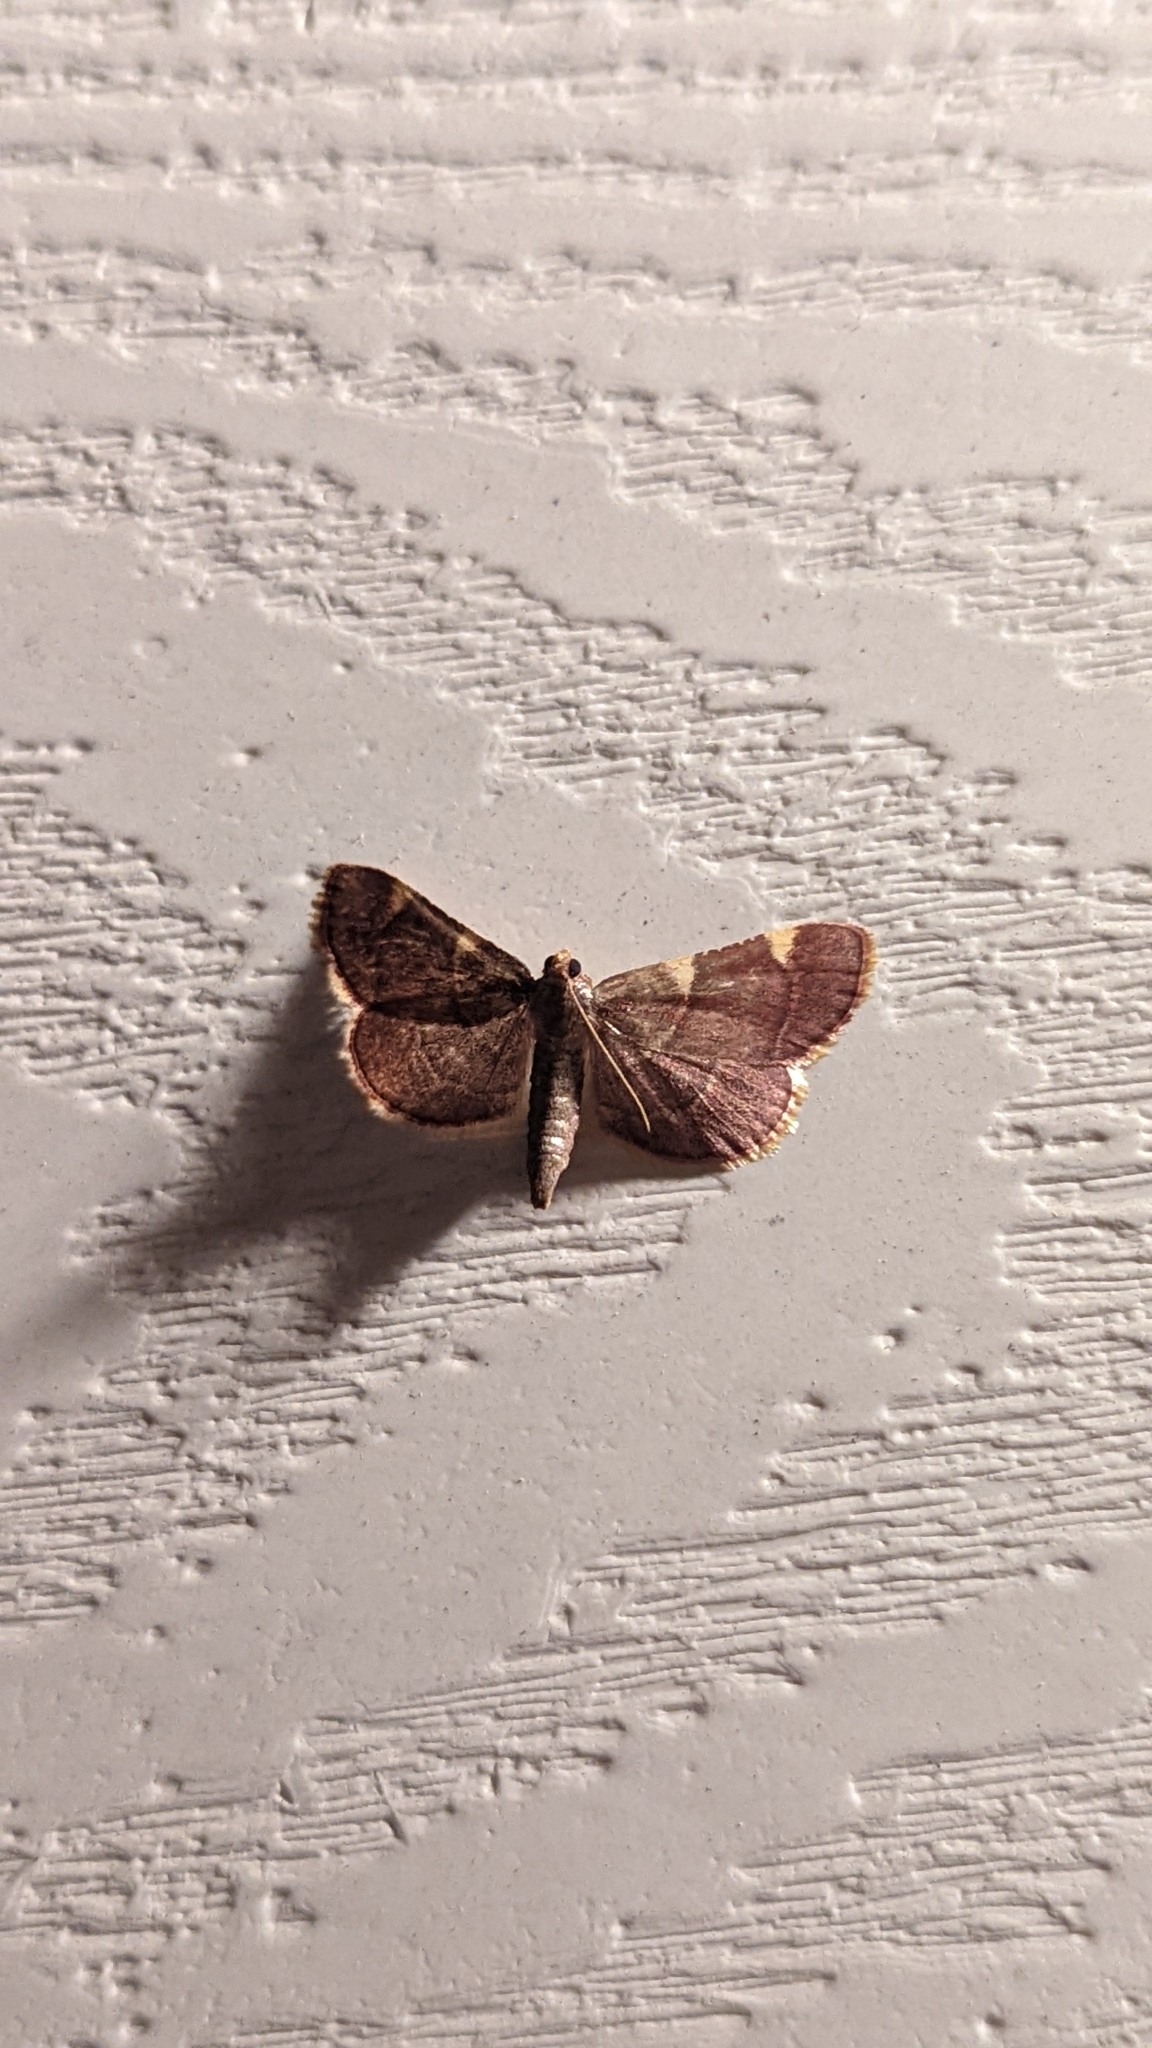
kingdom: Animalia
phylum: Arthropoda
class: Insecta
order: Lepidoptera
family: Pyralidae
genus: Hypsopygia
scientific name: Hypsopygia olinalis
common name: Yellow-fringed dolichomia moth
